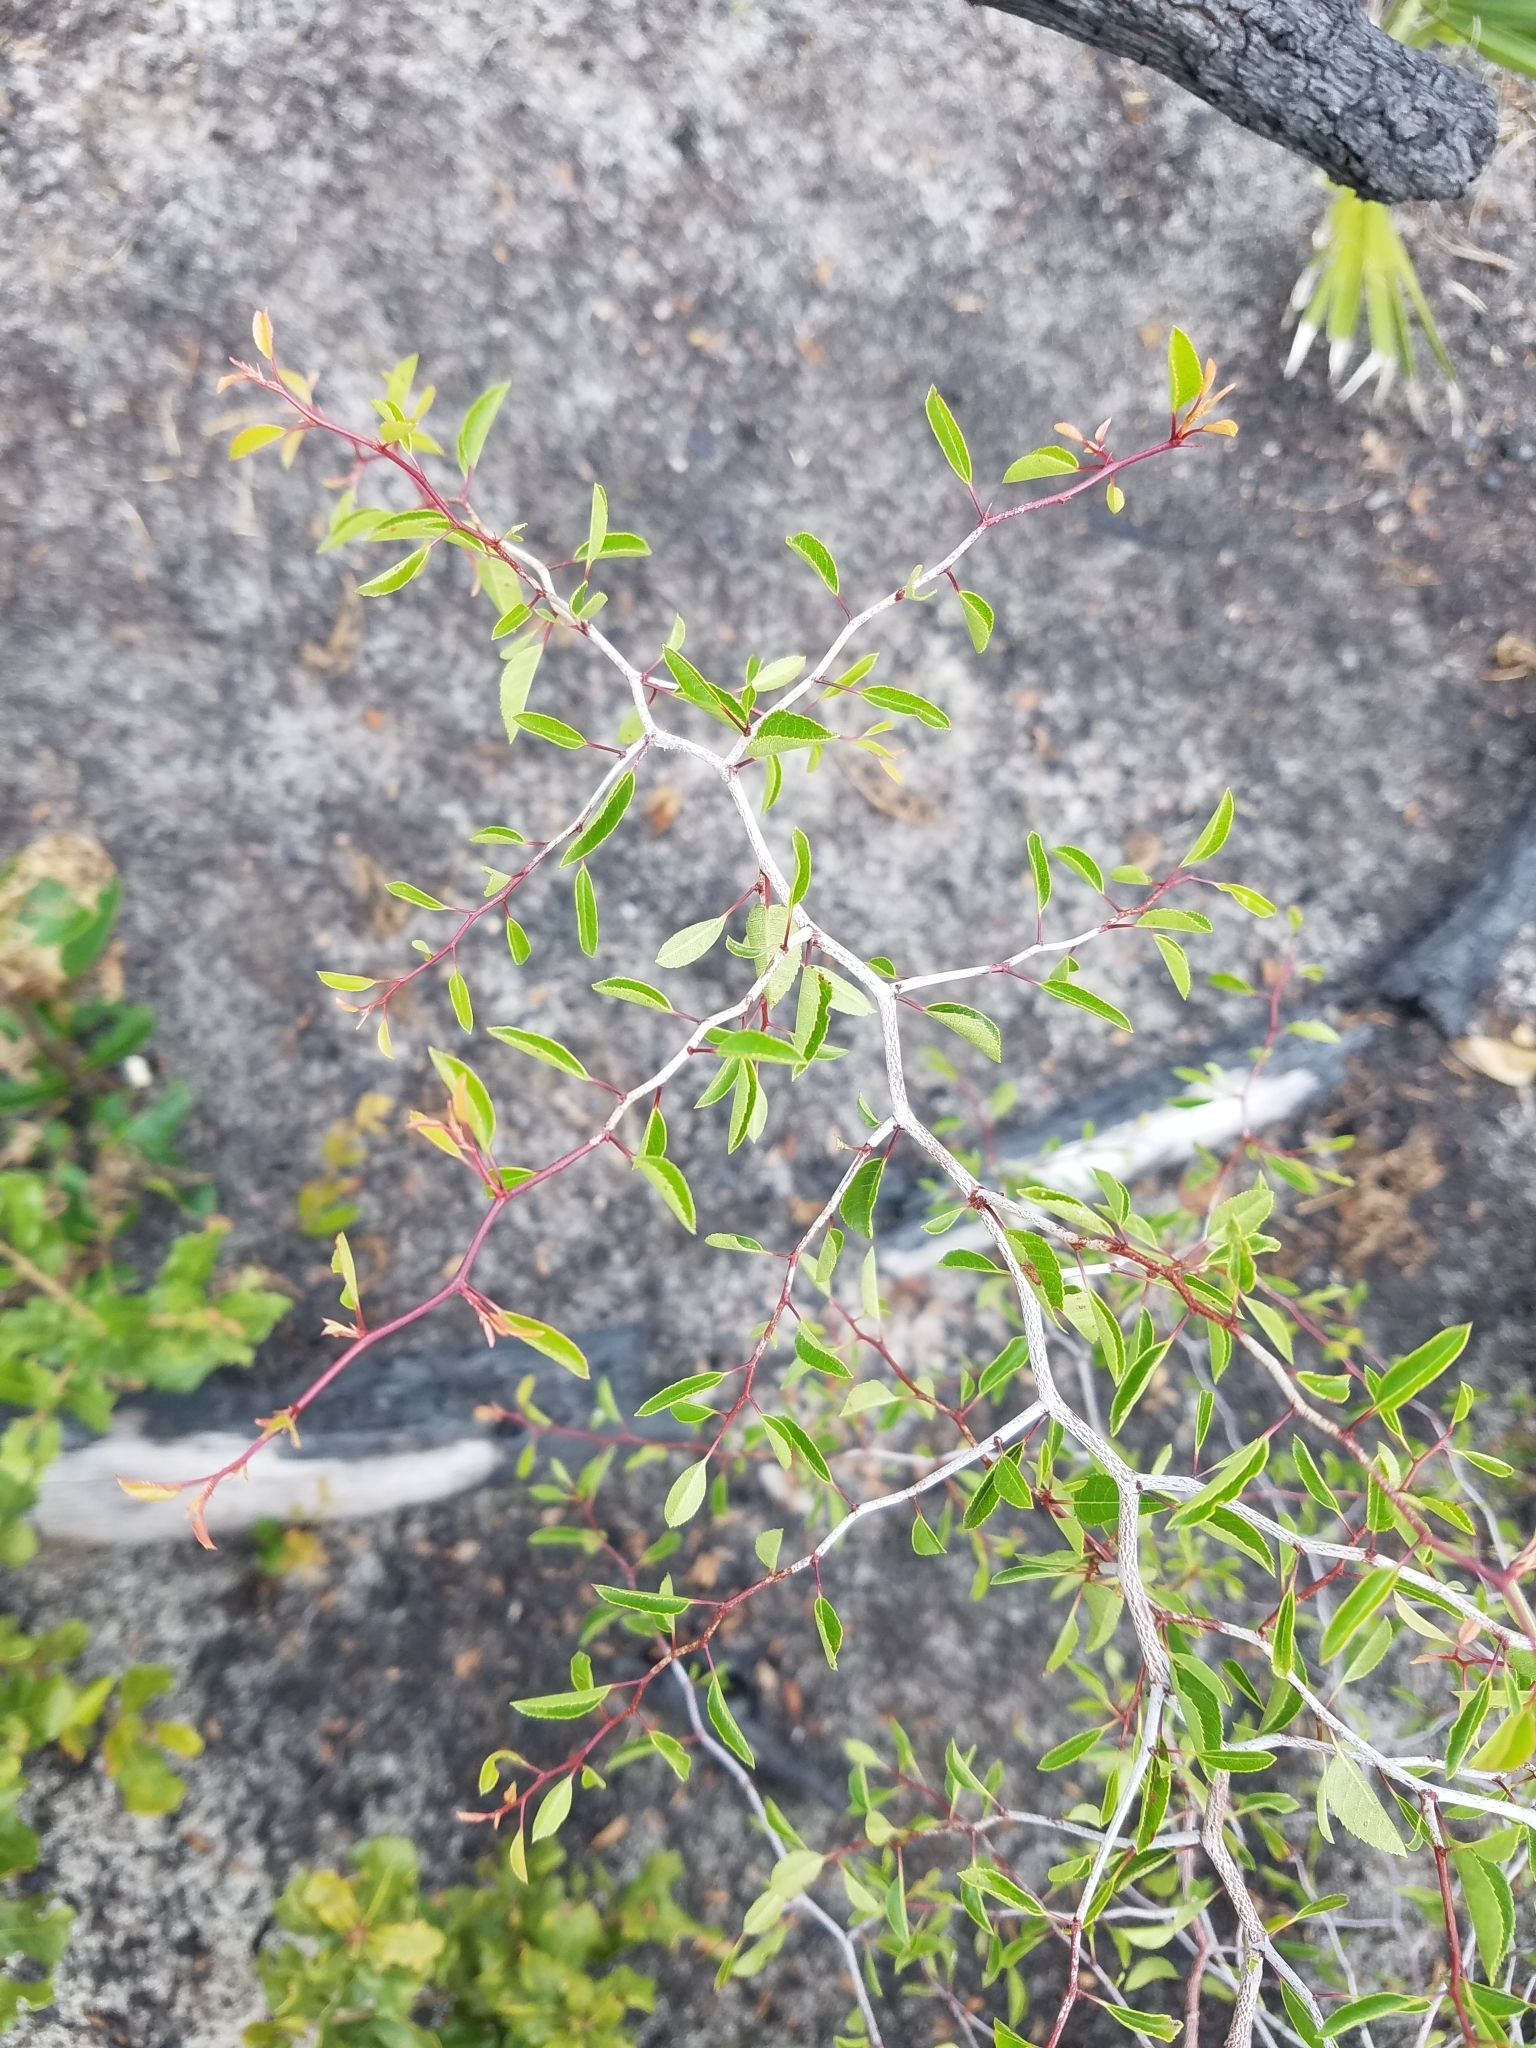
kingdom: Plantae
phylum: Tracheophyta
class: Magnoliopsida
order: Rosales
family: Rosaceae
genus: Prunus
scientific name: Prunus geniculata
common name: Scrub plum
